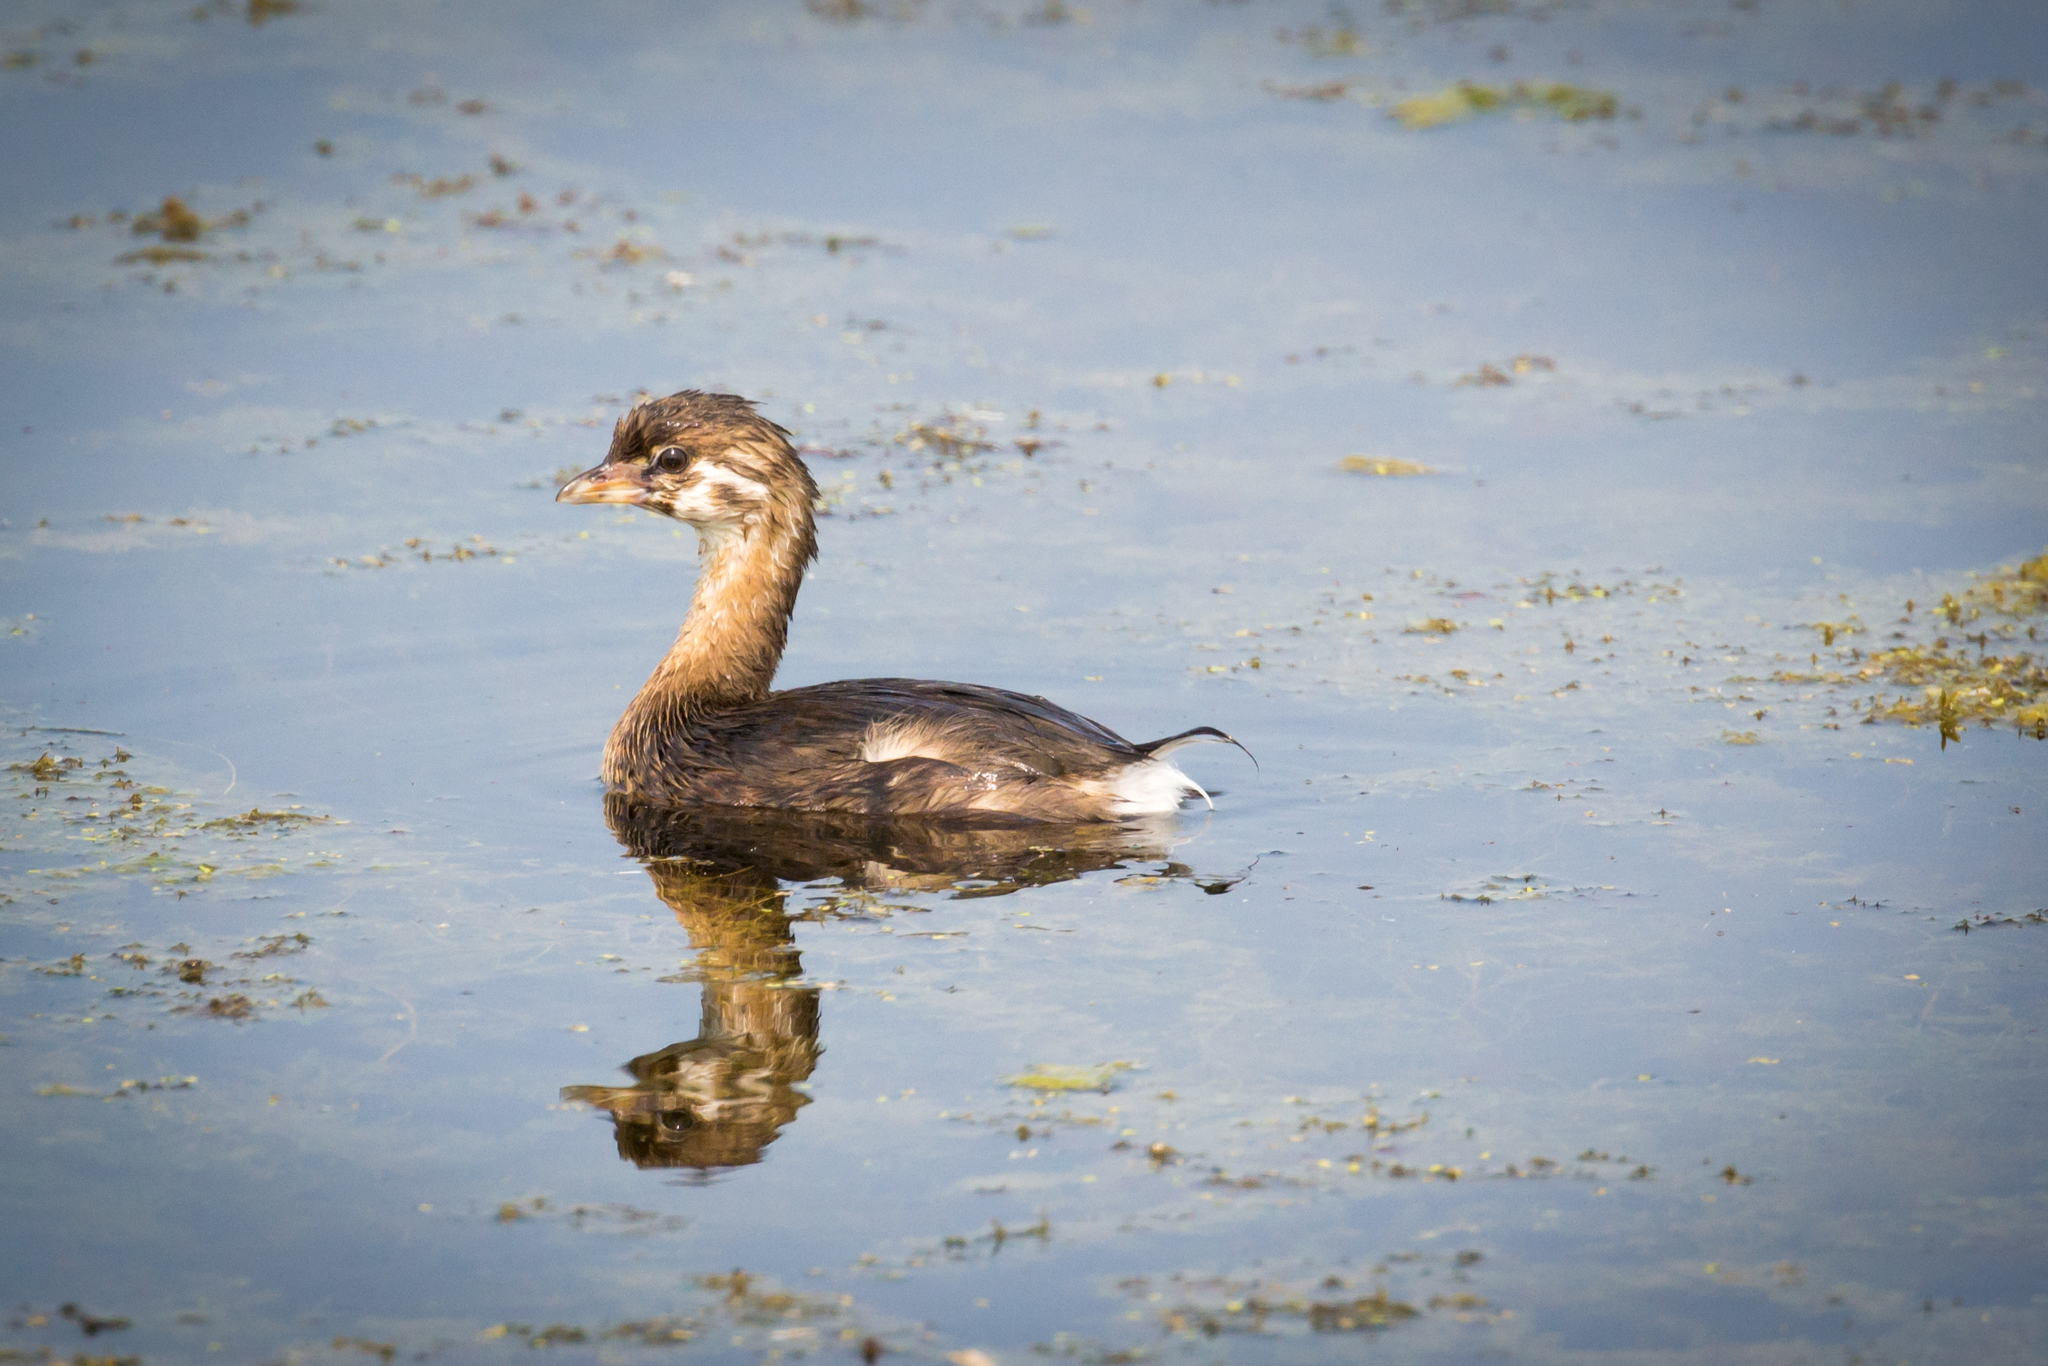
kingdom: Animalia
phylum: Chordata
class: Aves
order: Podicipediformes
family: Podicipedidae
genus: Podilymbus
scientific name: Podilymbus podiceps
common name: Pied-billed grebe
